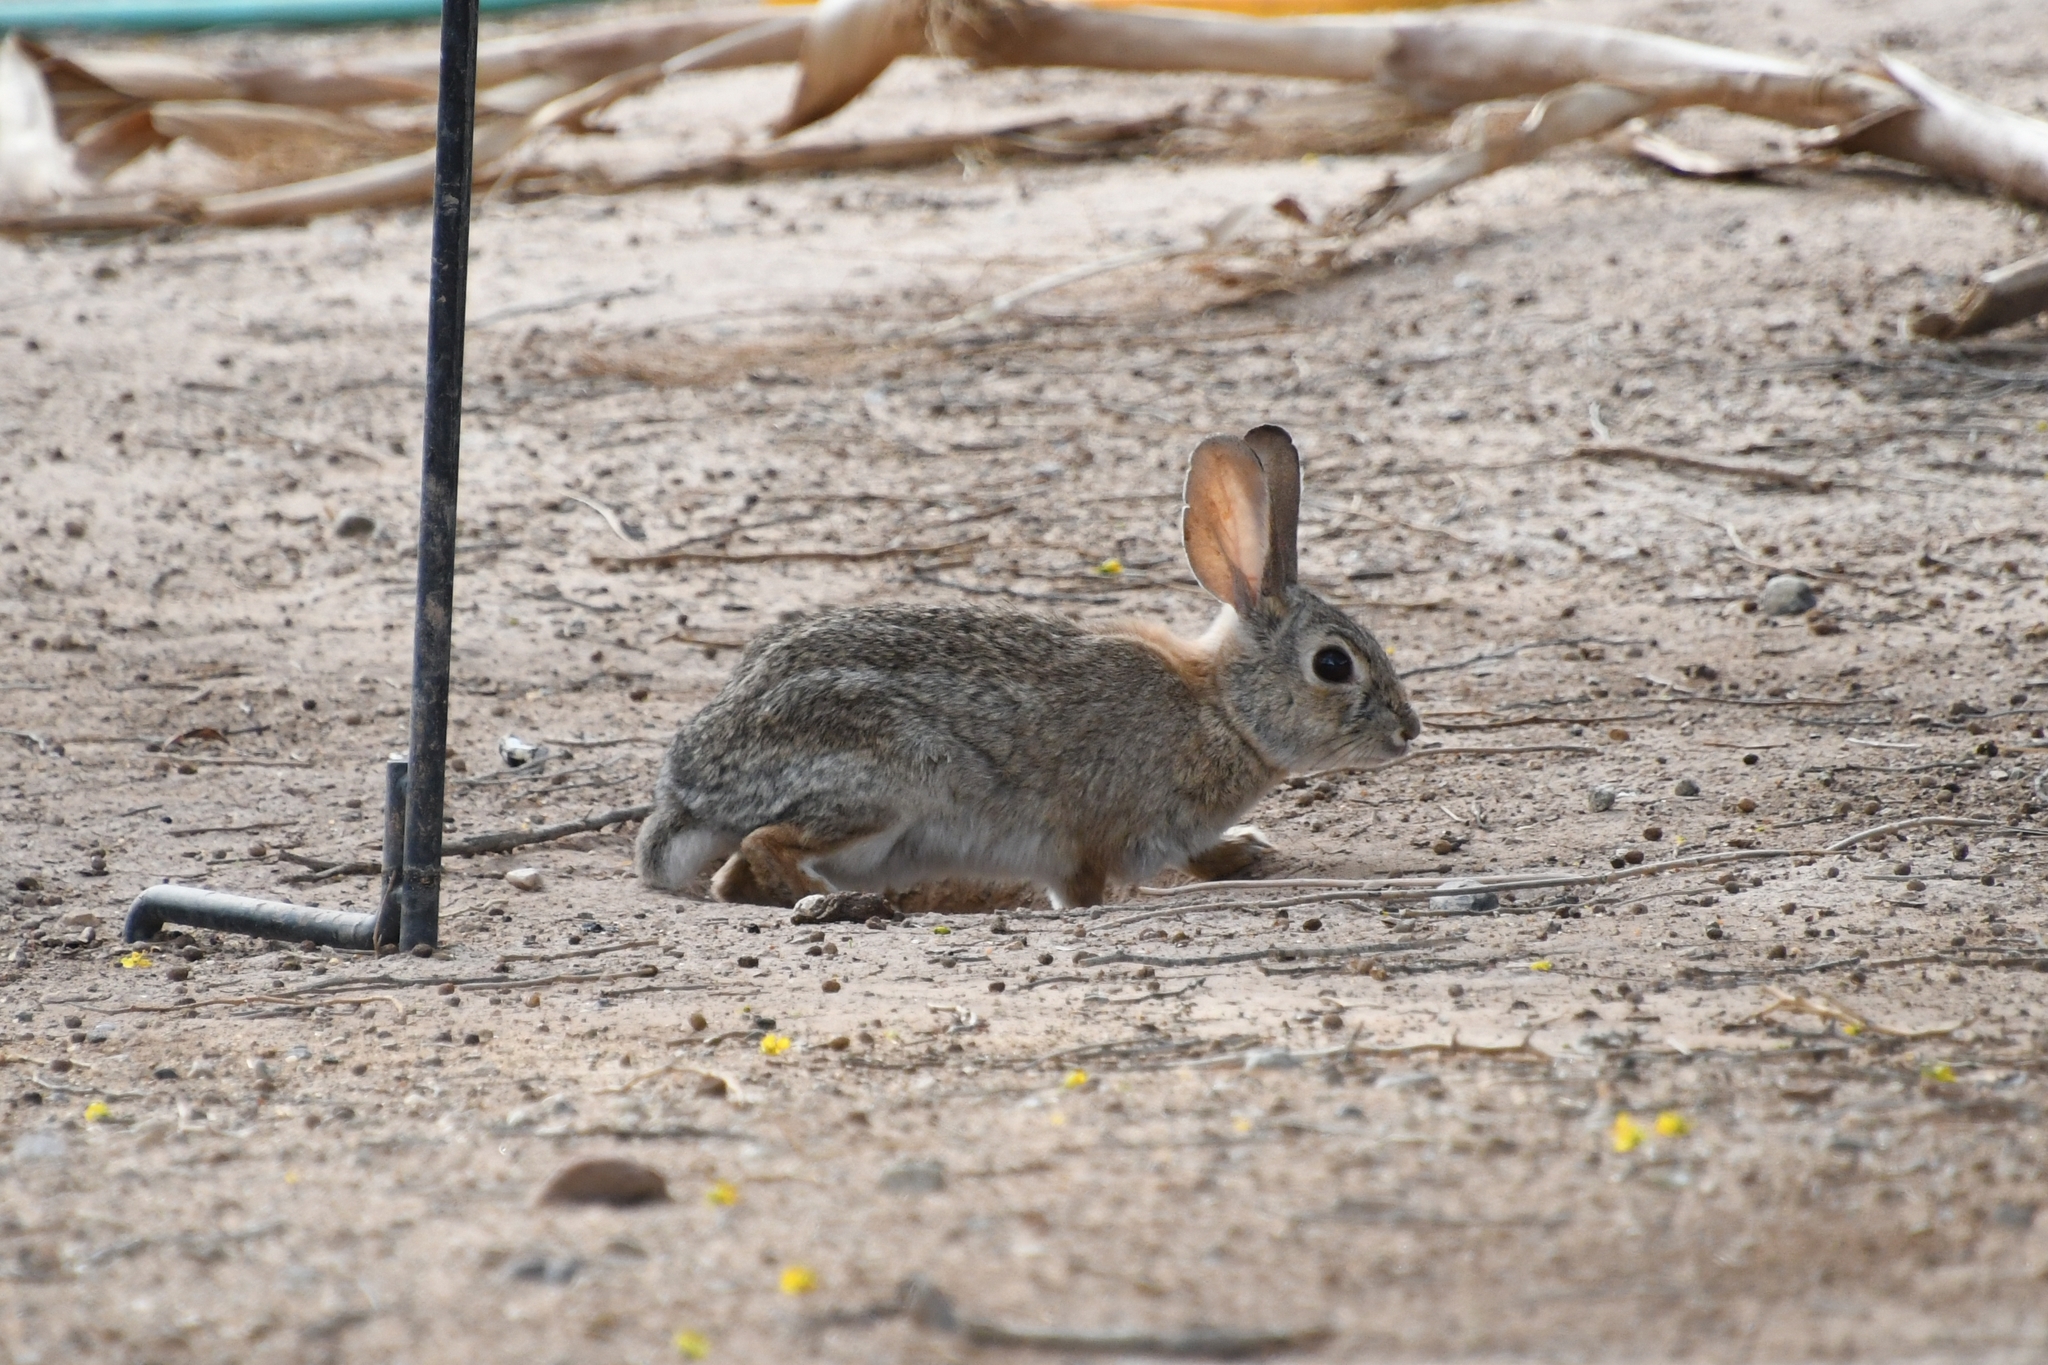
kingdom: Animalia
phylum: Chordata
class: Mammalia
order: Lagomorpha
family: Leporidae
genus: Sylvilagus
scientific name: Sylvilagus audubonii
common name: Desert cottontail
